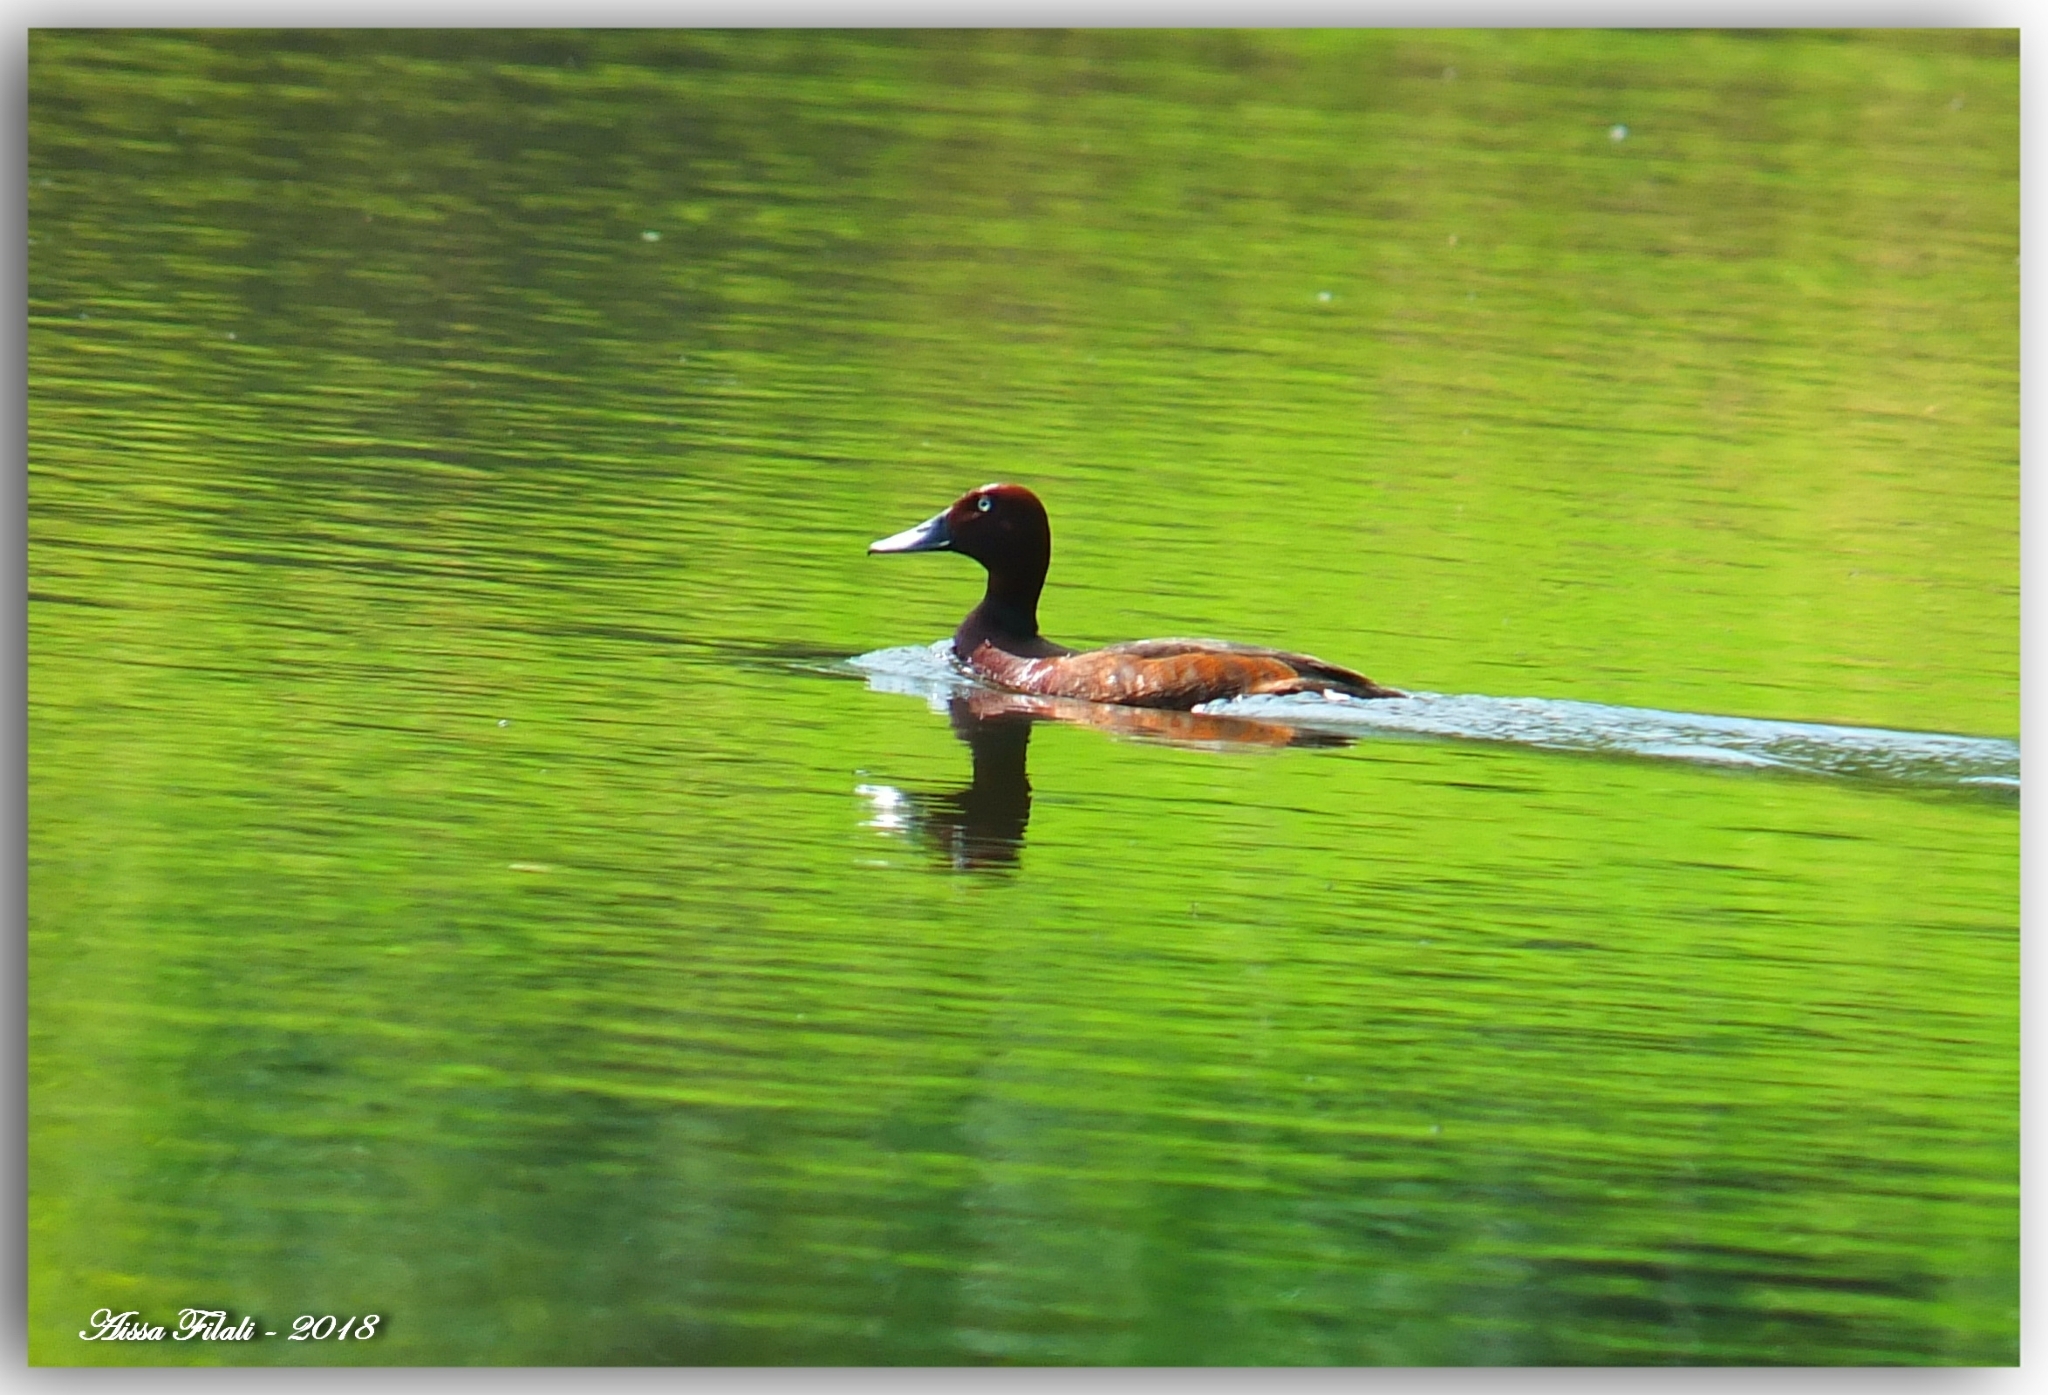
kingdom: Animalia
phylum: Chordata
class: Aves
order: Anseriformes
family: Anatidae
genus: Aythya
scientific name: Aythya nyroca
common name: Ferruginous duck
